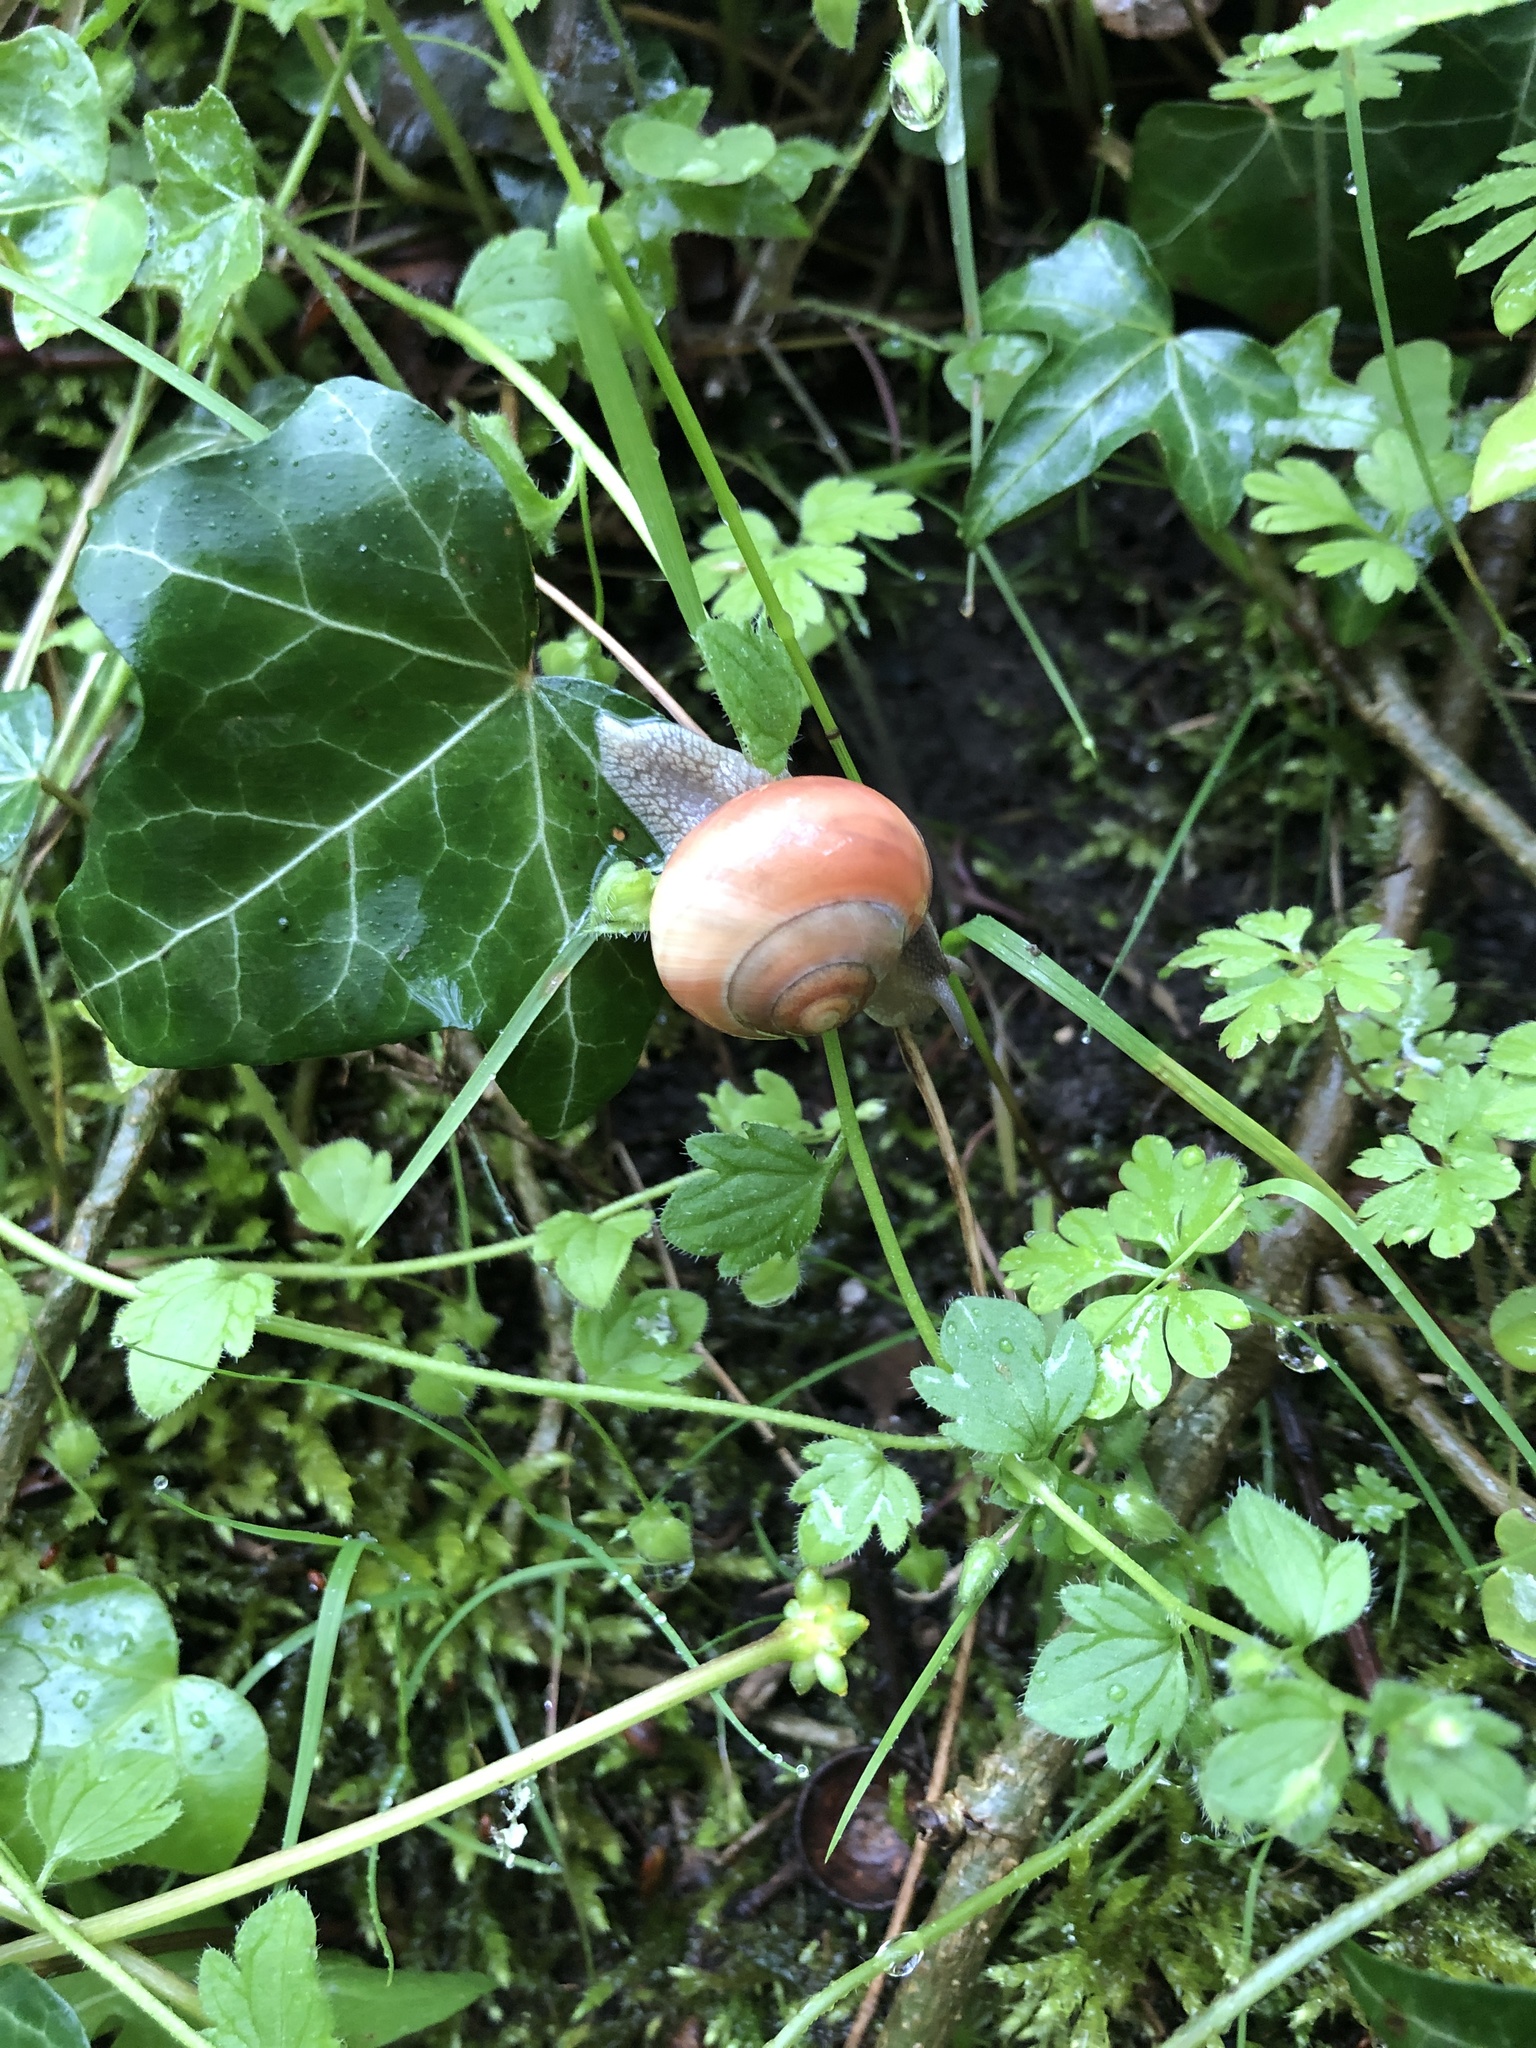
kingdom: Animalia
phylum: Mollusca
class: Gastropoda
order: Stylommatophora
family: Helicidae
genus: Cepaea
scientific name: Cepaea
